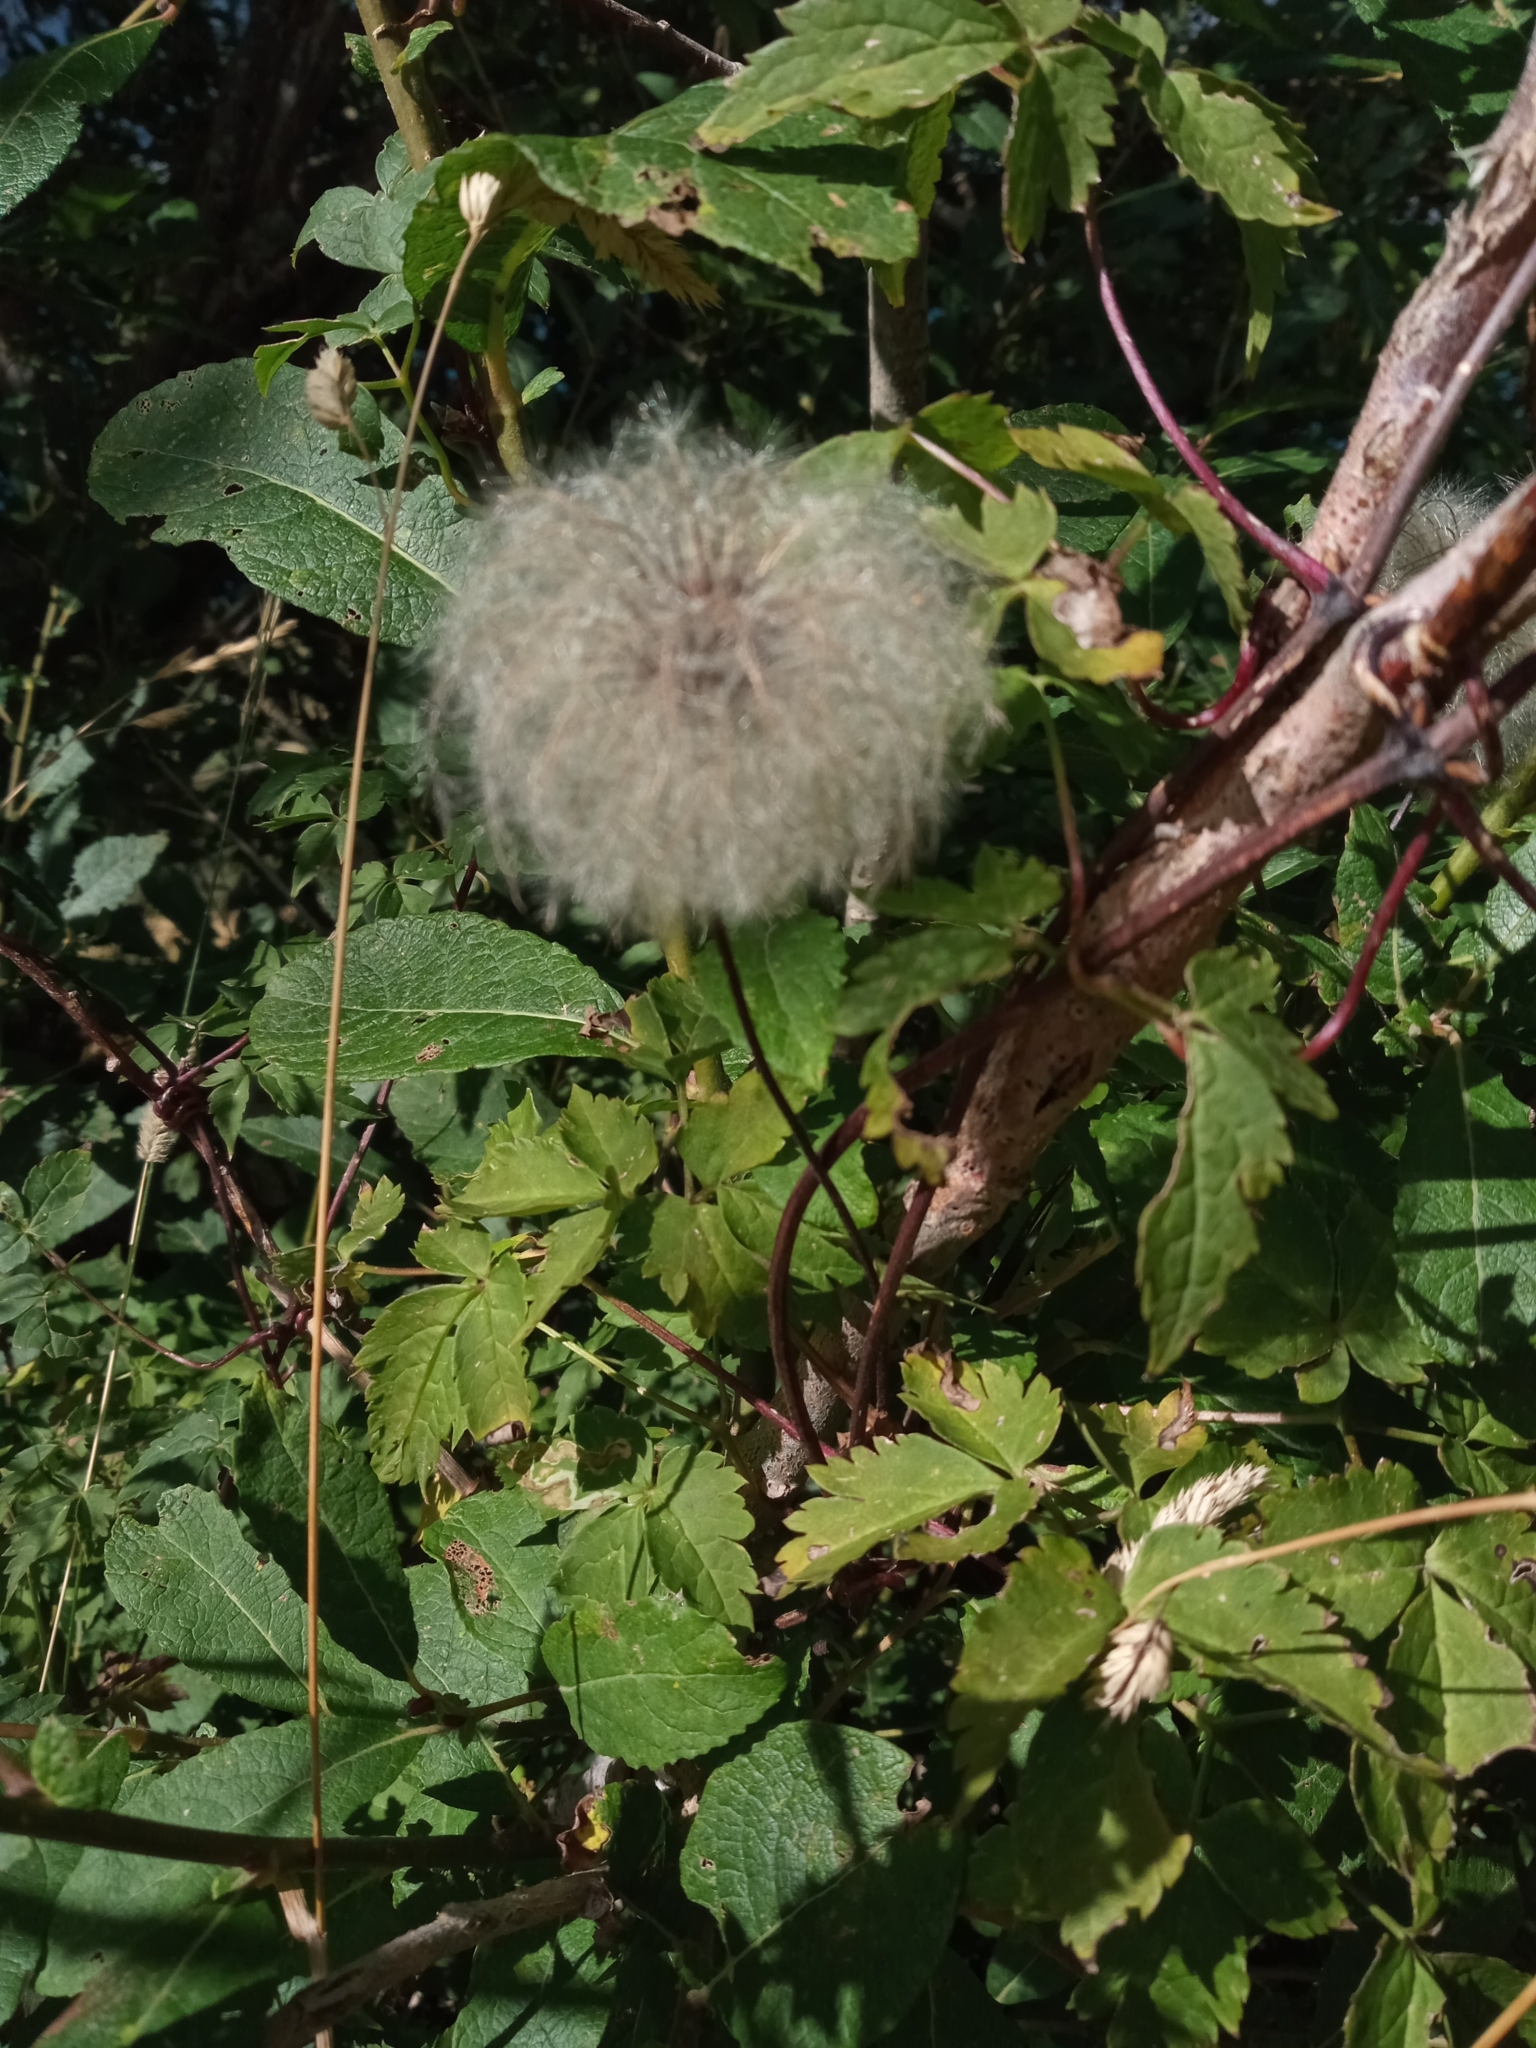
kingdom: Plantae
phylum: Tracheophyta
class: Magnoliopsida
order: Ranunculales
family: Ranunculaceae
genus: Clematis
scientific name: Clematis alpina
